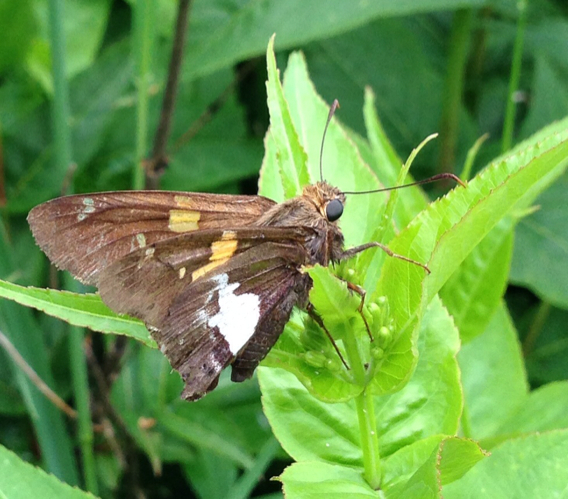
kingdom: Animalia
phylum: Arthropoda
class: Insecta
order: Lepidoptera
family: Hesperiidae
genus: Epargyreus
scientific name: Epargyreus clarus
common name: Silver-spotted skipper
